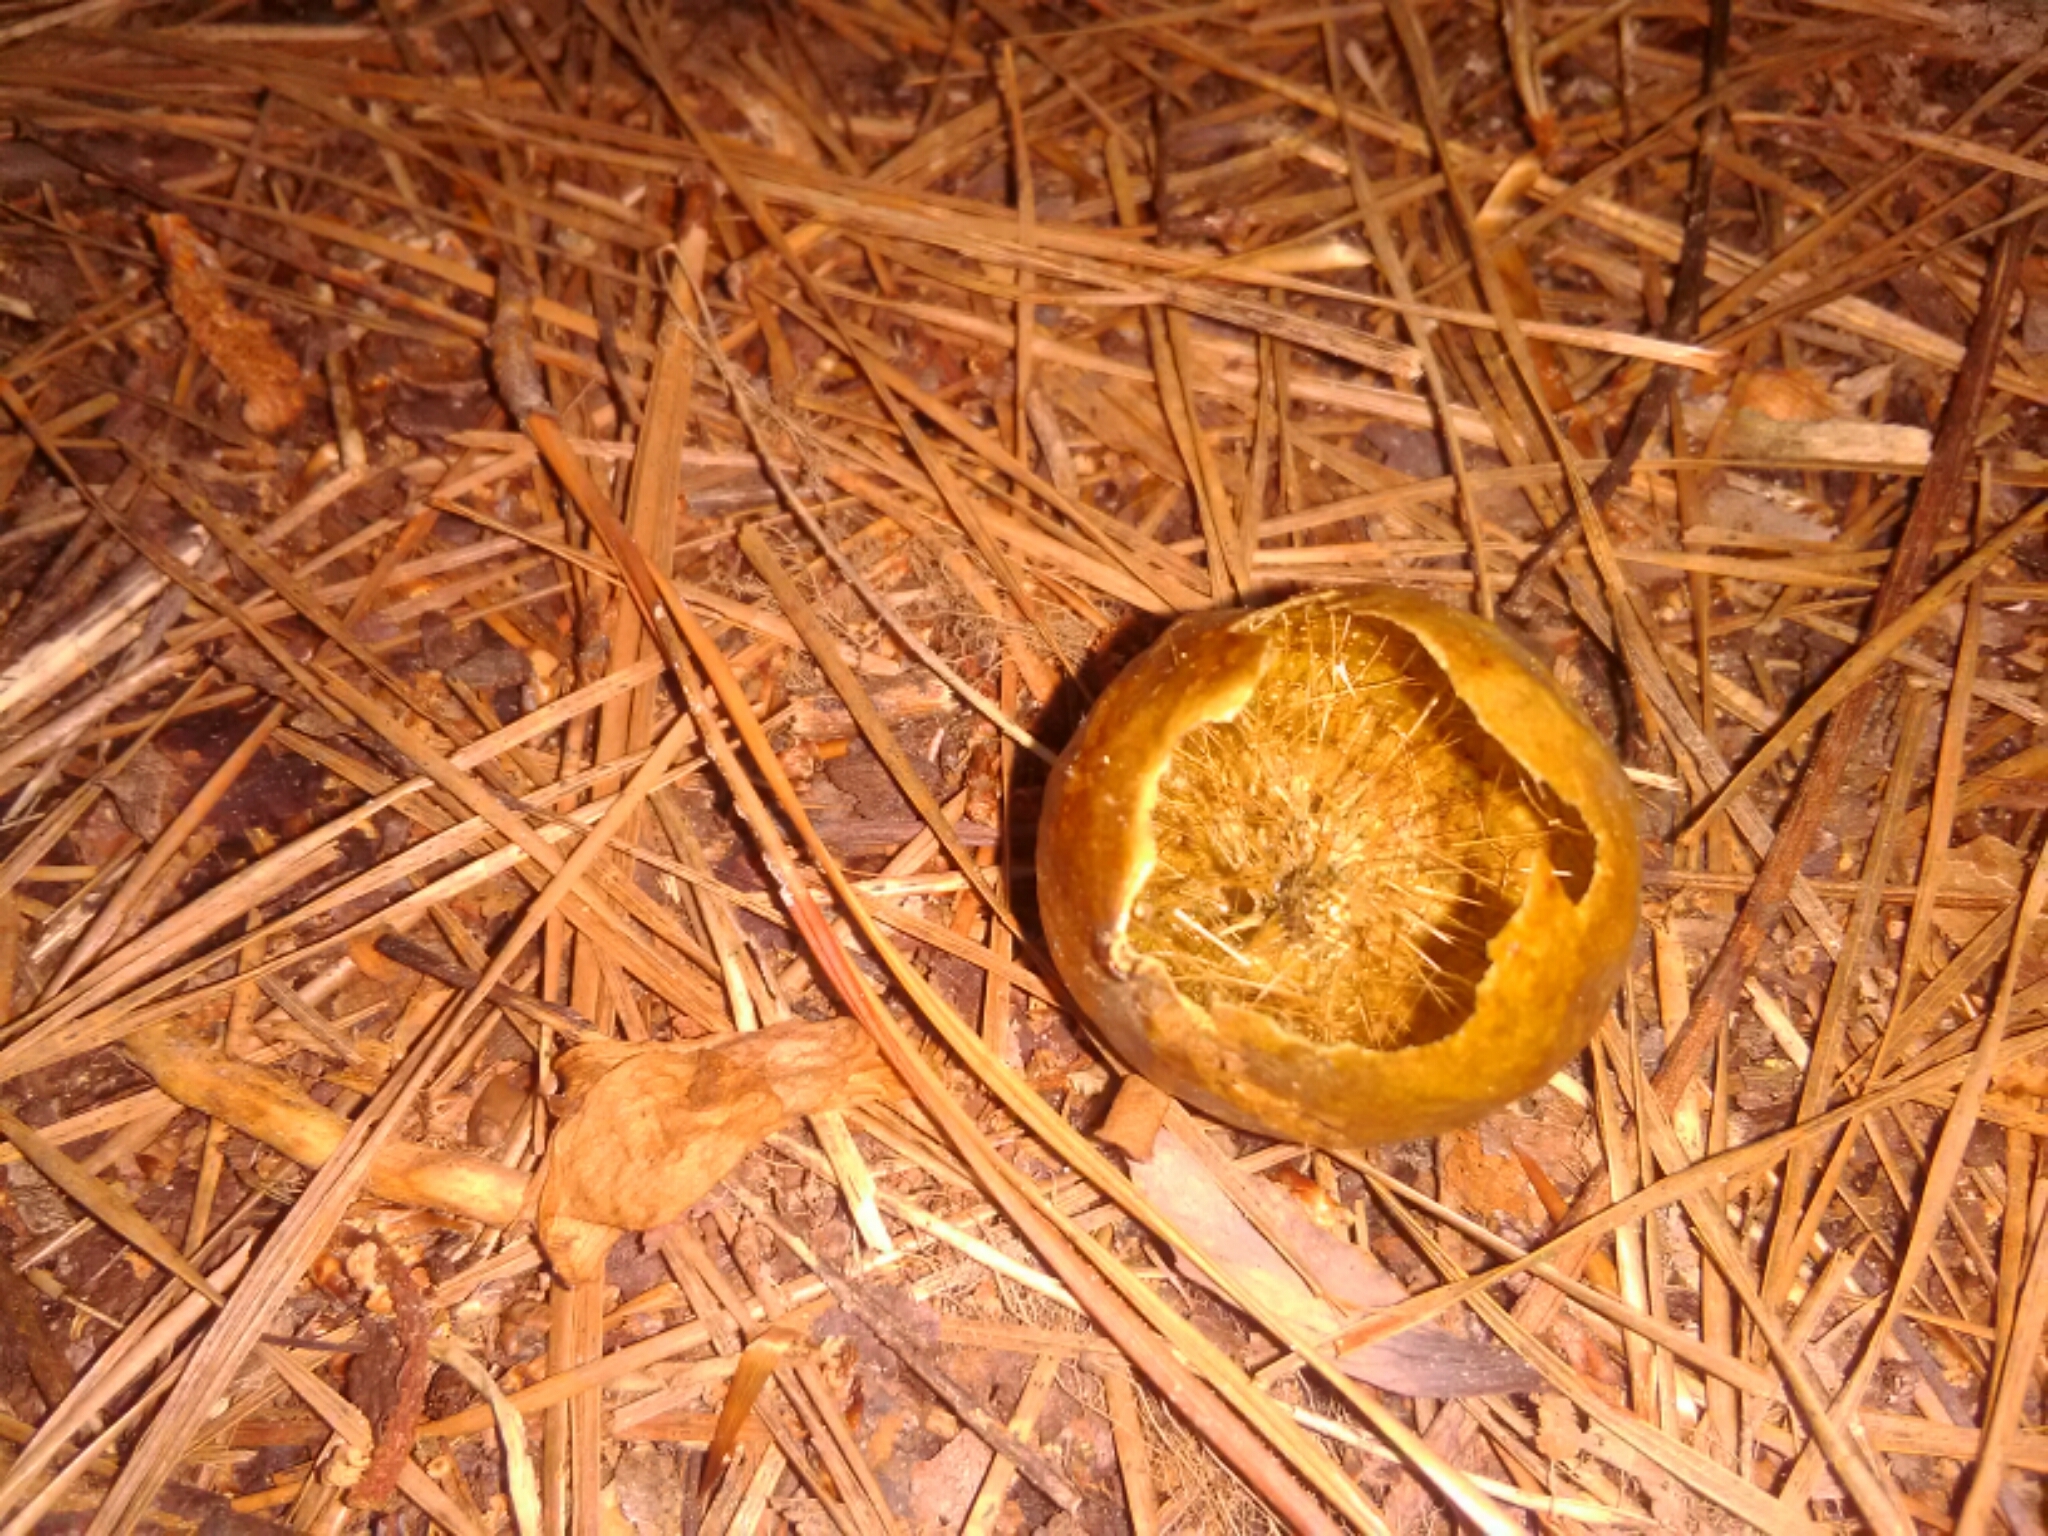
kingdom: Animalia
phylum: Arthropoda
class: Insecta
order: Hymenoptera
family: Cynipidae
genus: Amphibolips
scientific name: Amphibolips
